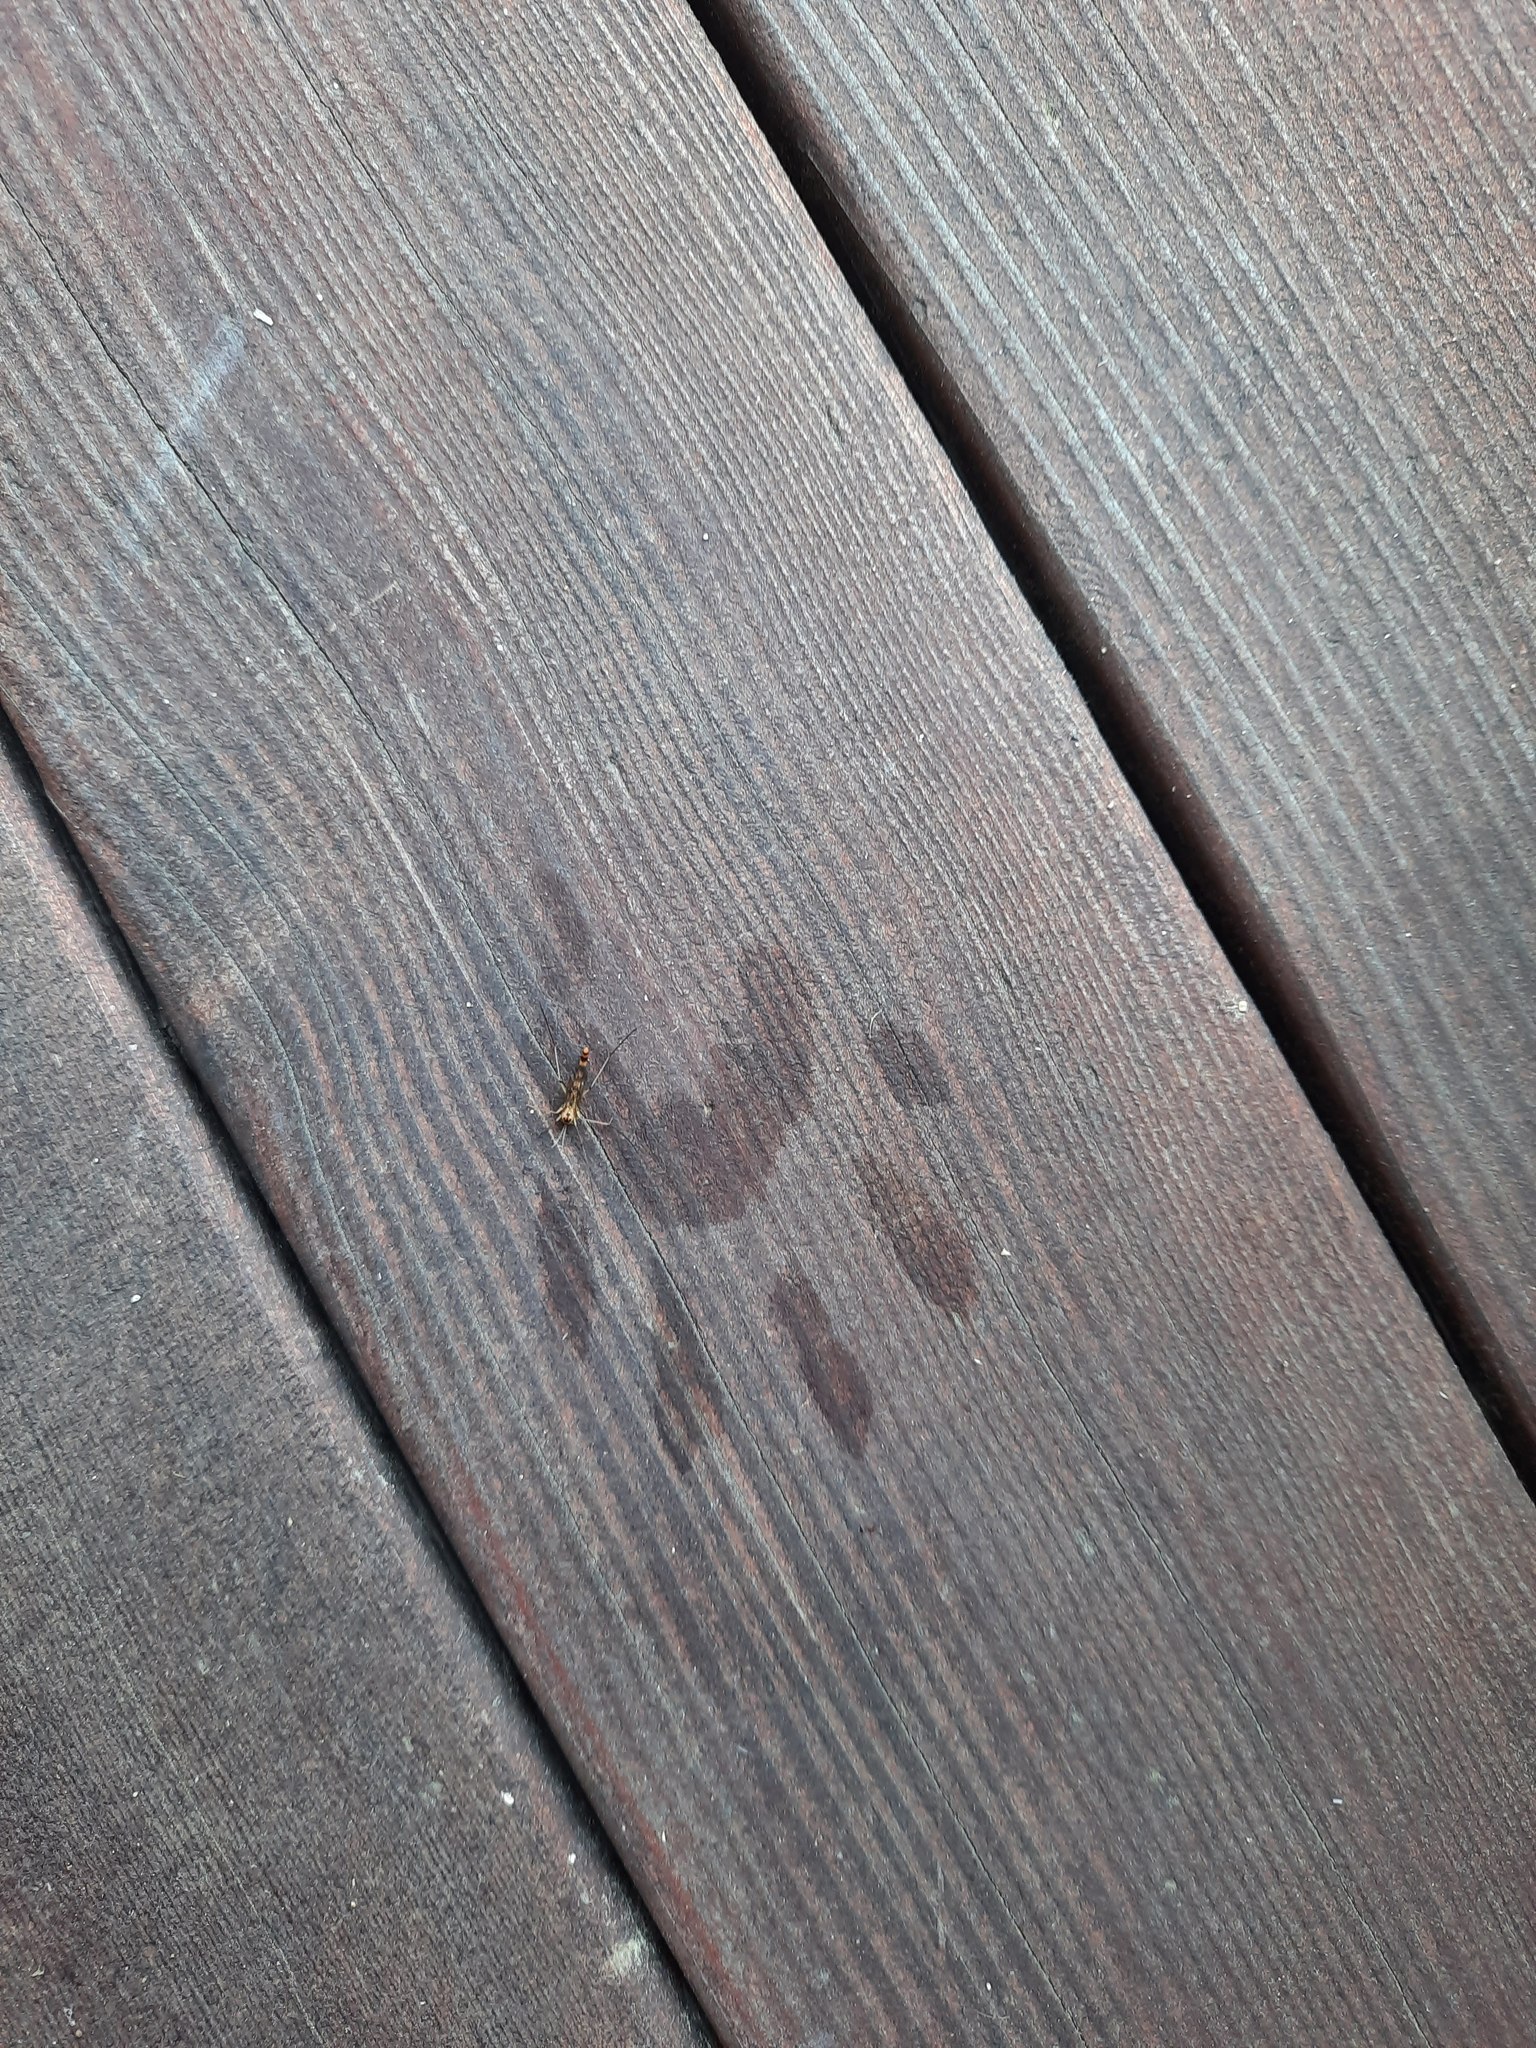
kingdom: Animalia
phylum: Chordata
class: Mammalia
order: Carnivora
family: Procyonidae
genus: Procyon
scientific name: Procyon lotor
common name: Raccoon
